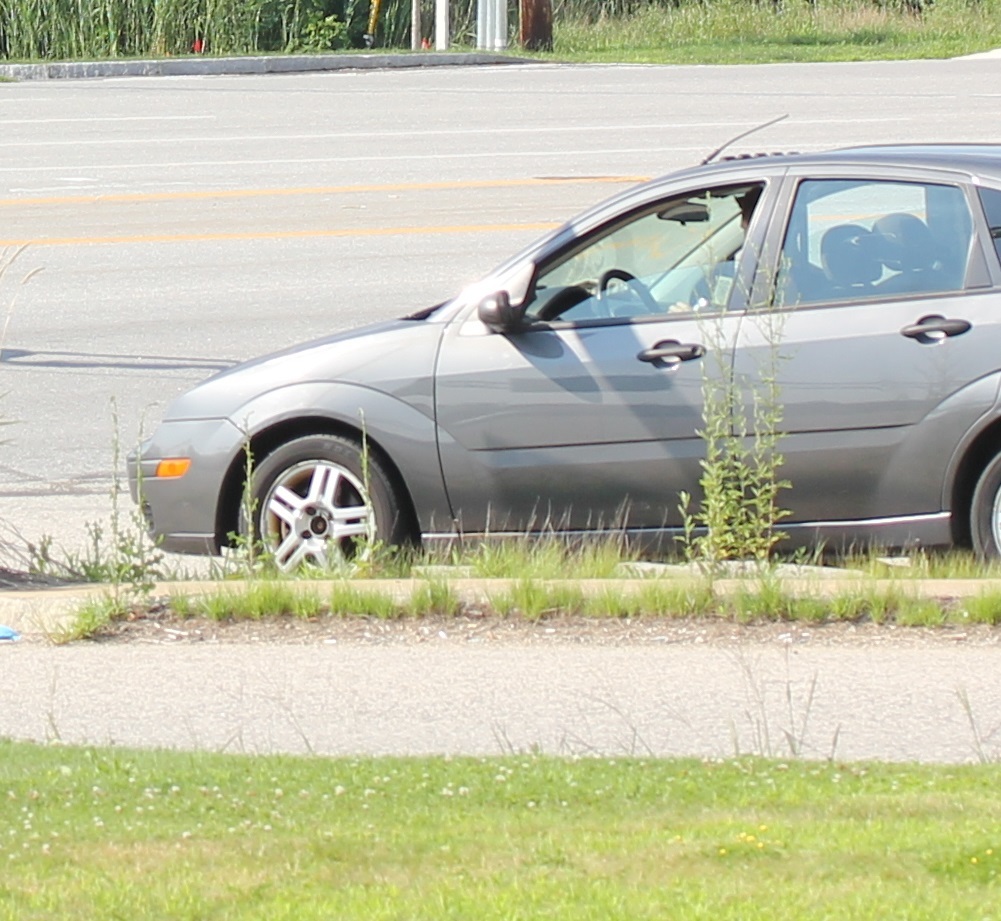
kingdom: Plantae
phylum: Tracheophyta
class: Magnoliopsida
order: Fabales
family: Fabaceae
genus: Melilotus
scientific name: Melilotus albus
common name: White melilot
